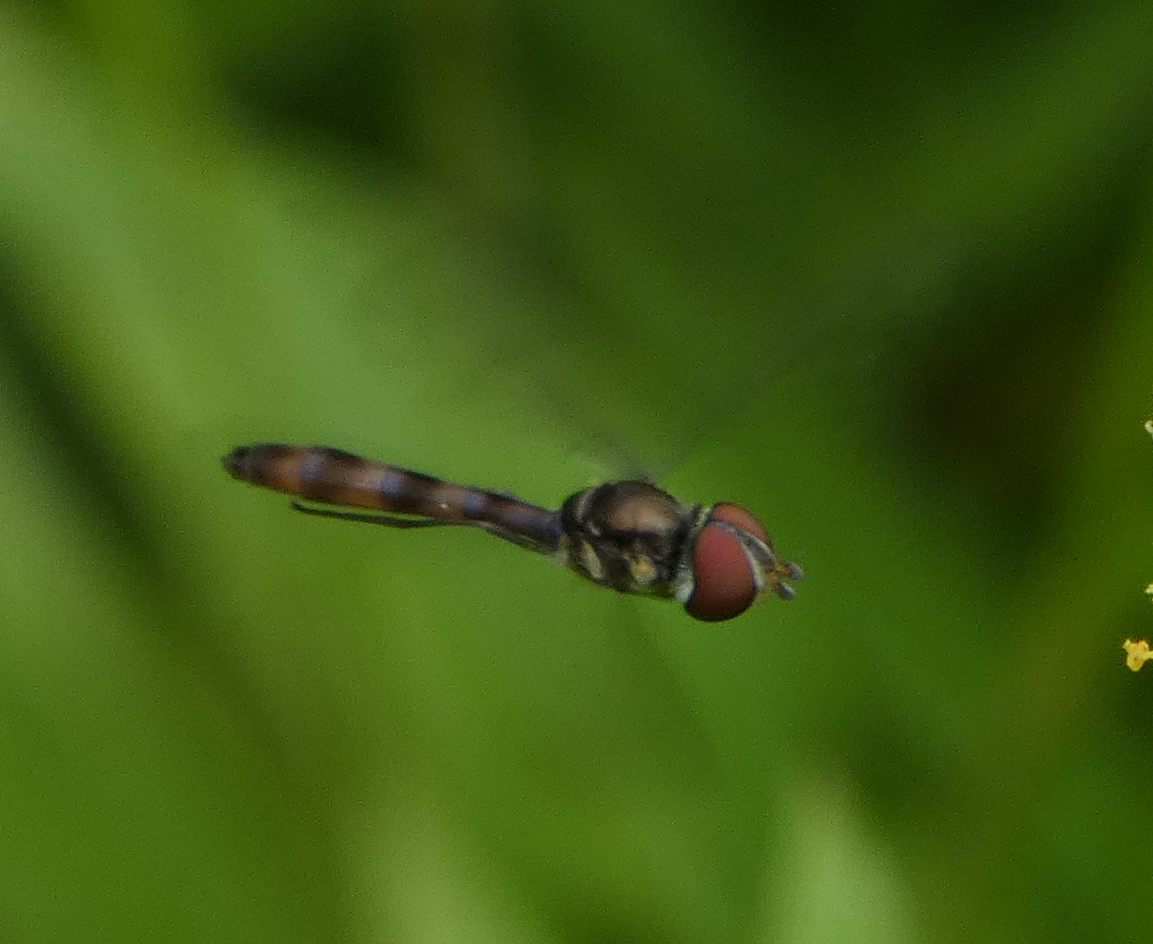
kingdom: Animalia
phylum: Arthropoda
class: Insecta
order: Diptera
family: Syrphidae
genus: Ocyptamus
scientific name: Ocyptamus fuscipennis
